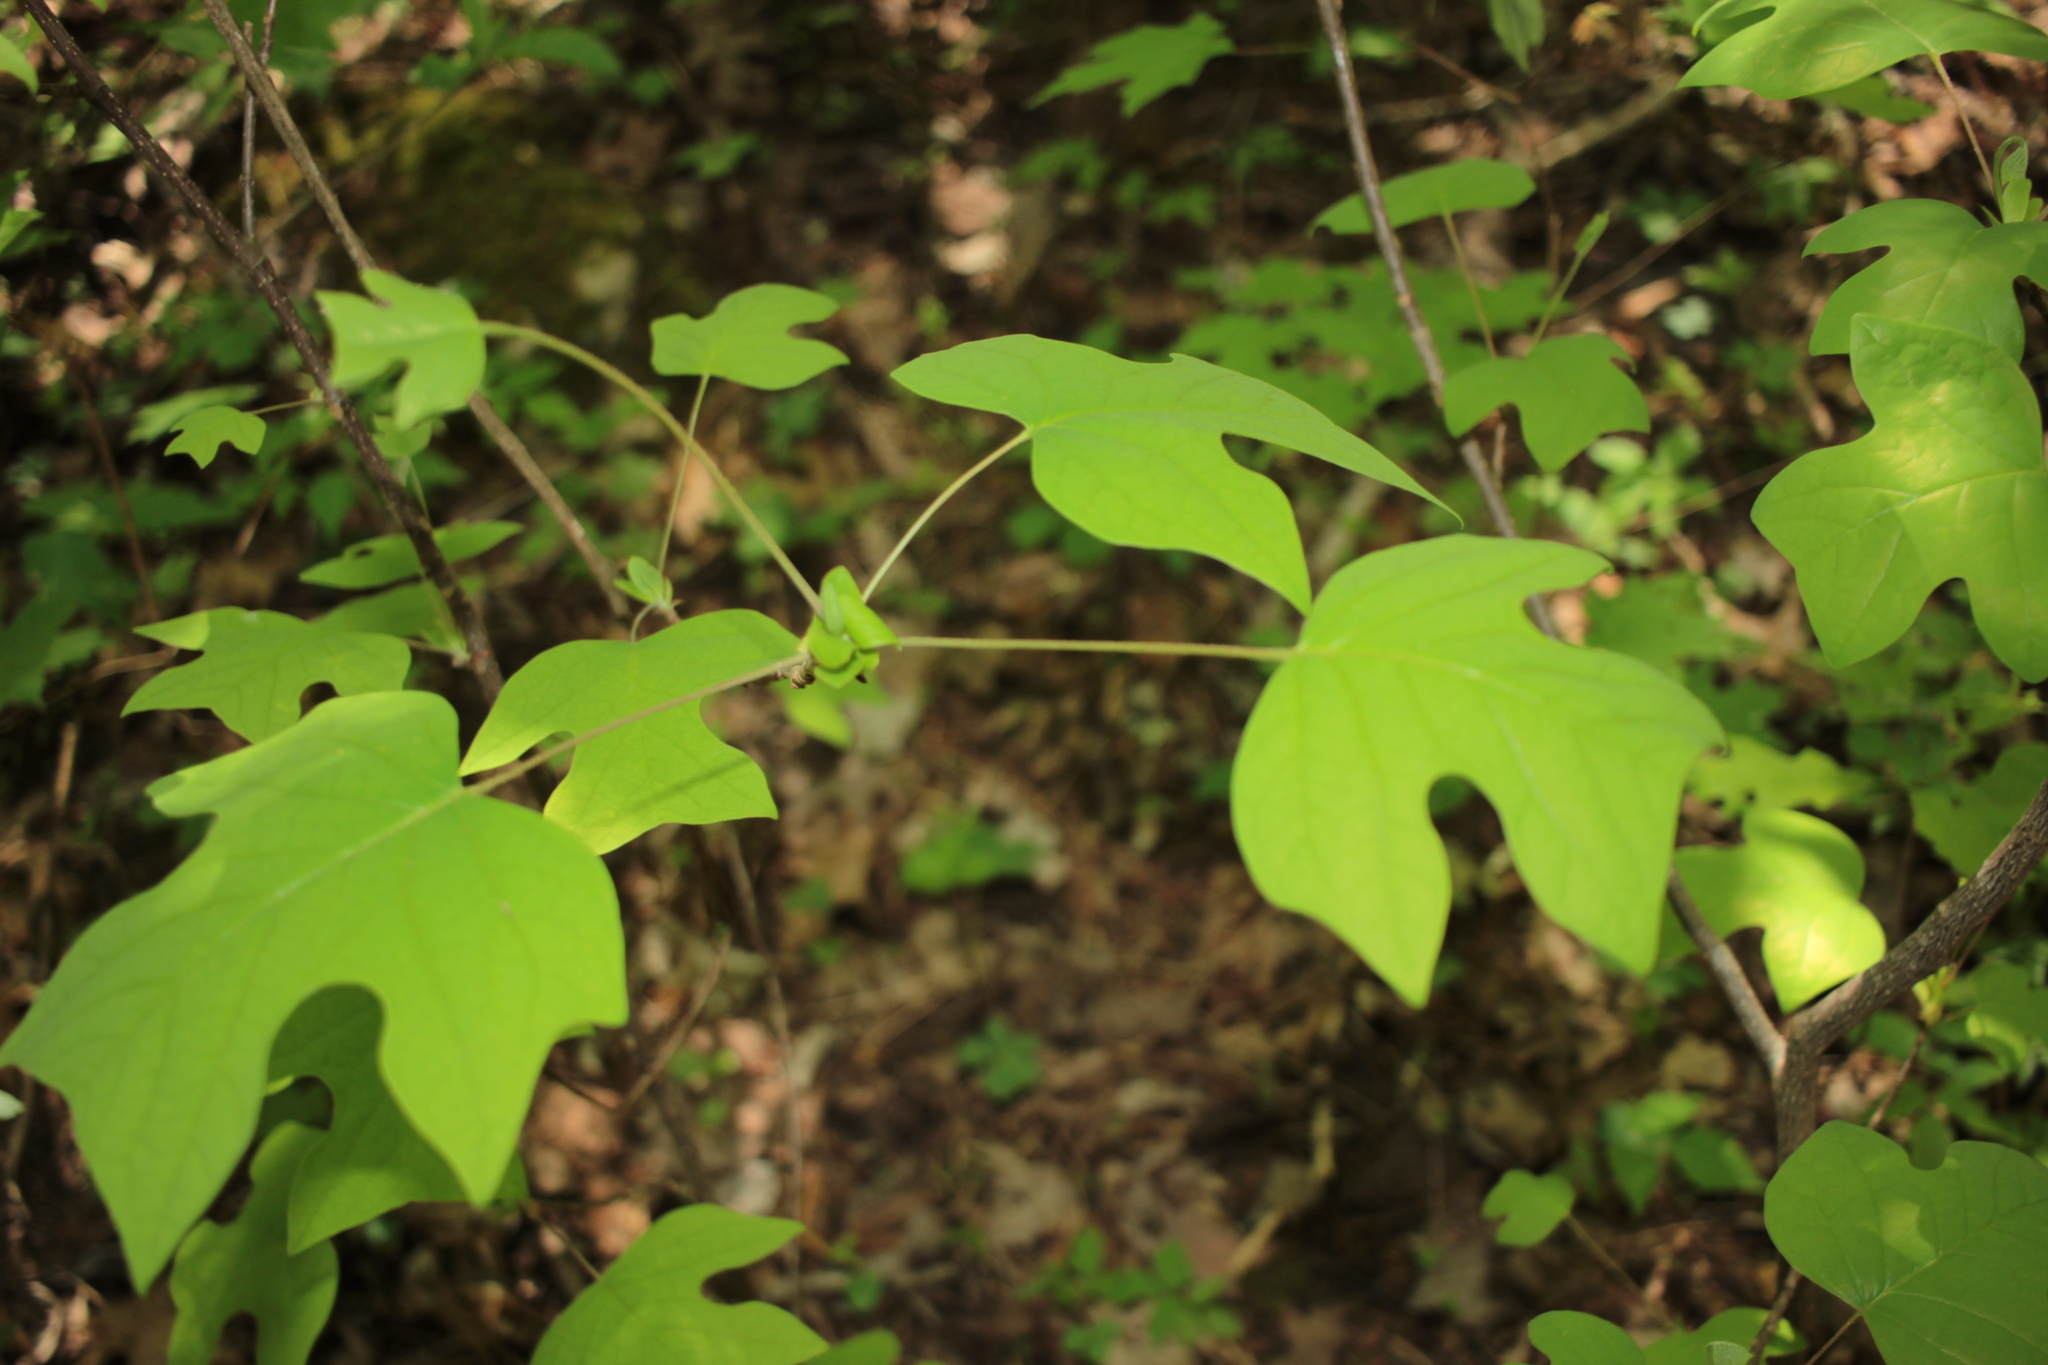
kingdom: Plantae
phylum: Tracheophyta
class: Magnoliopsida
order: Magnoliales
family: Magnoliaceae
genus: Liriodendron
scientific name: Liriodendron tulipifera
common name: Tulip tree
